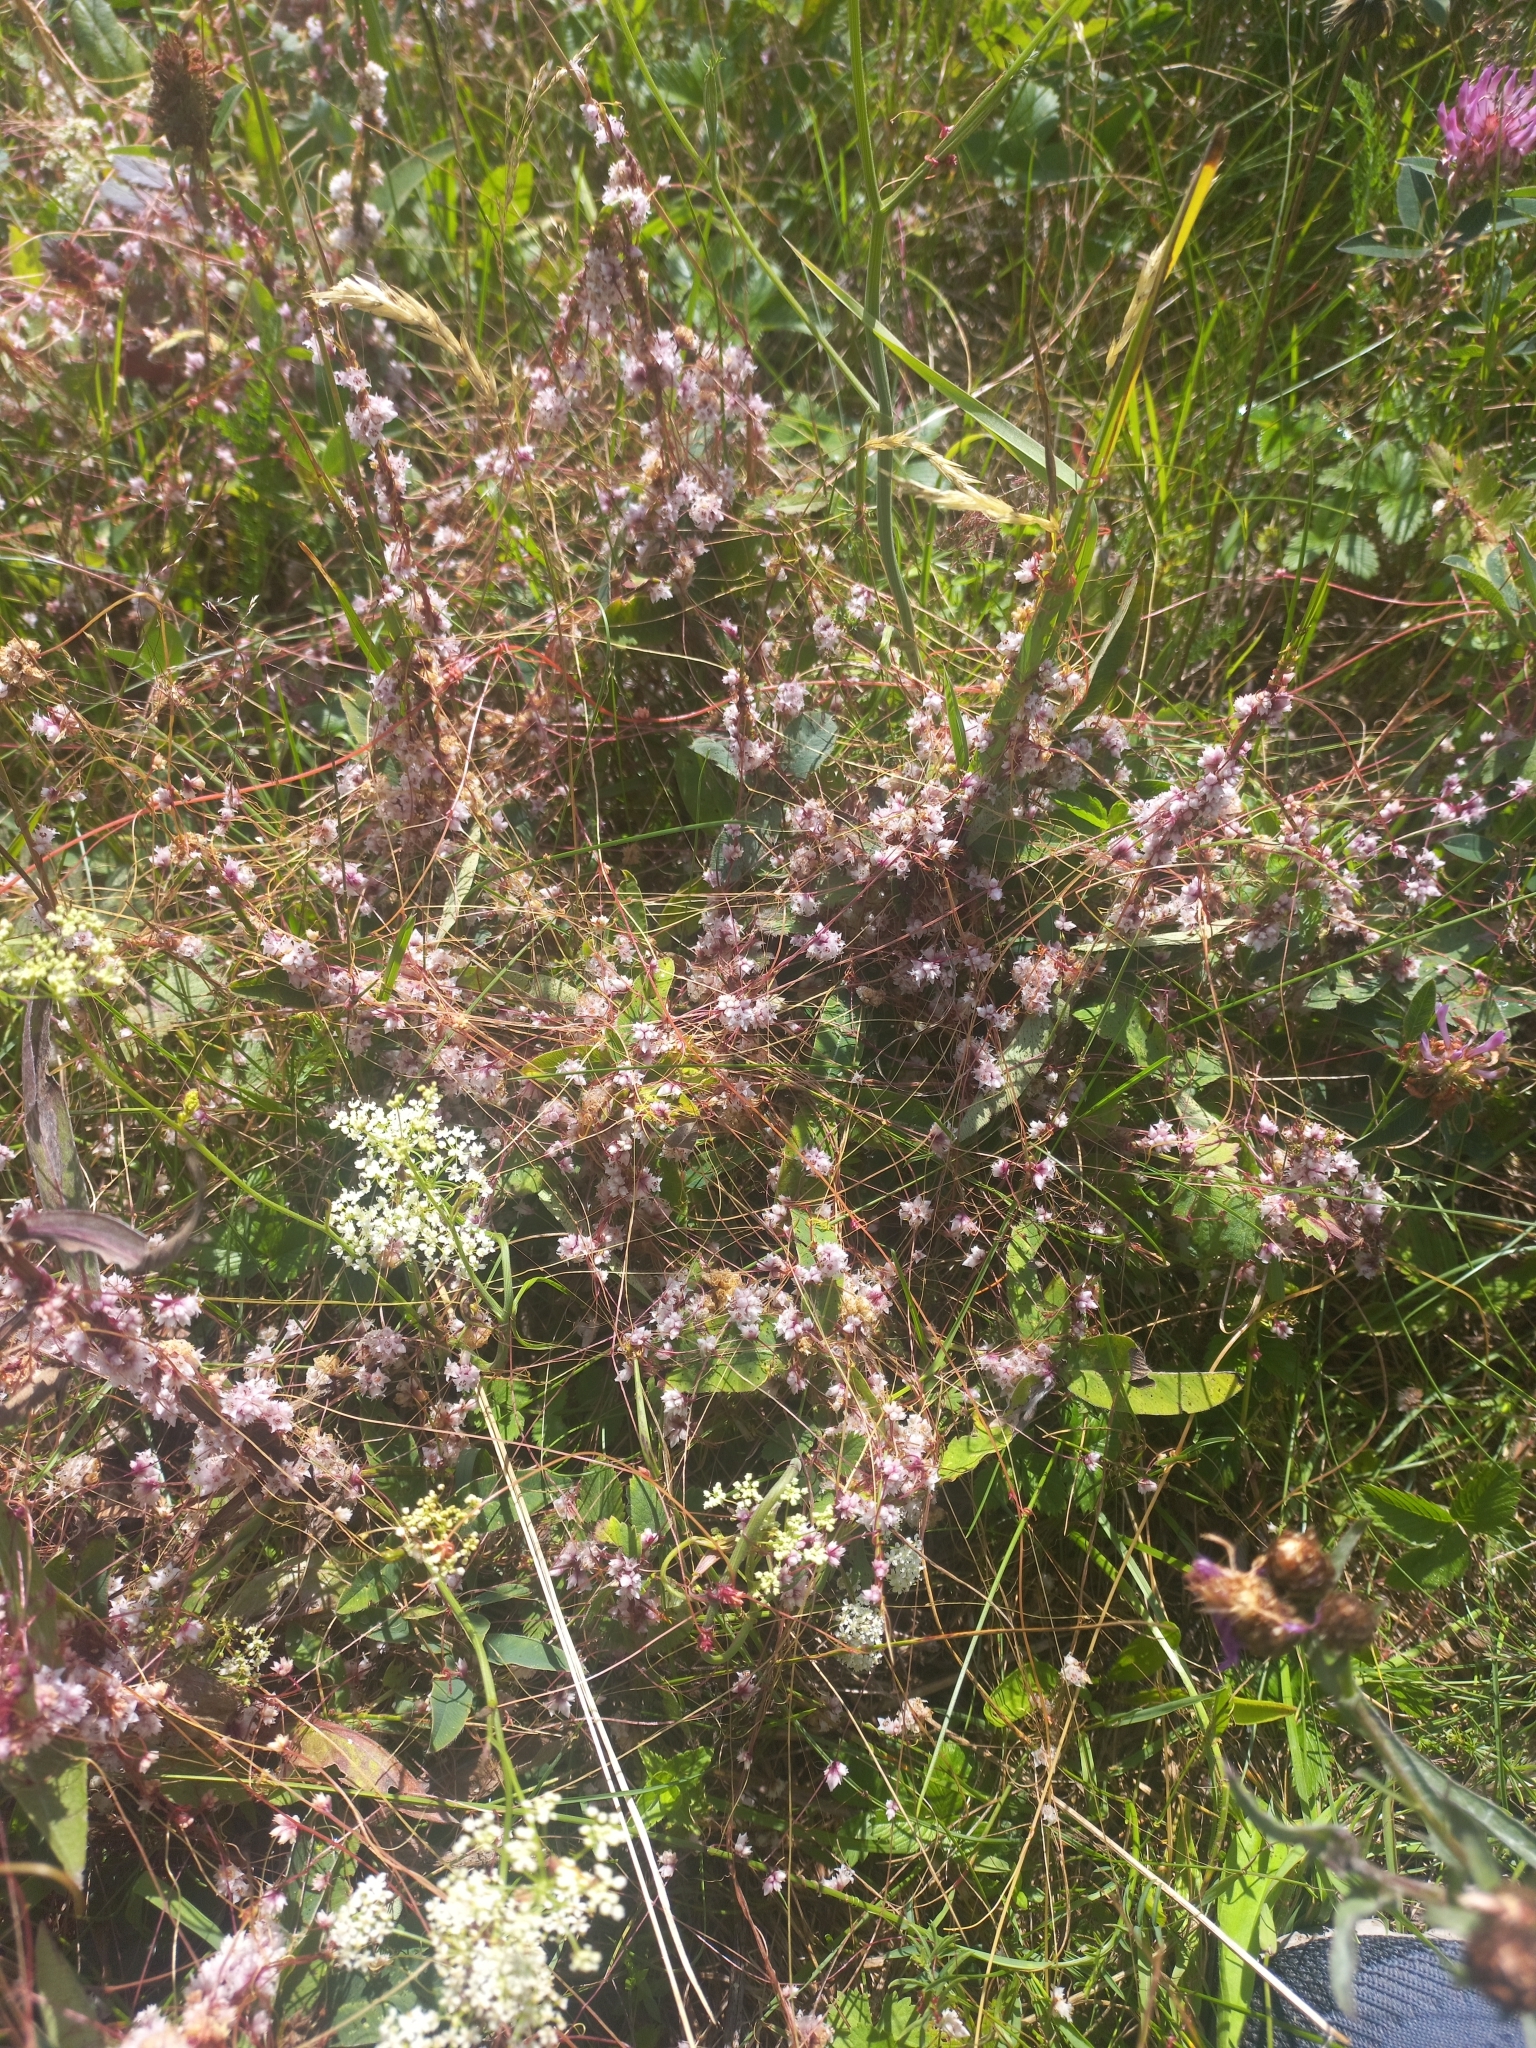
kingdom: Plantae
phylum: Tracheophyta
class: Magnoliopsida
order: Solanales
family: Convolvulaceae
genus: Cuscuta
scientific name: Cuscuta epithymum
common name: Clover dodder
